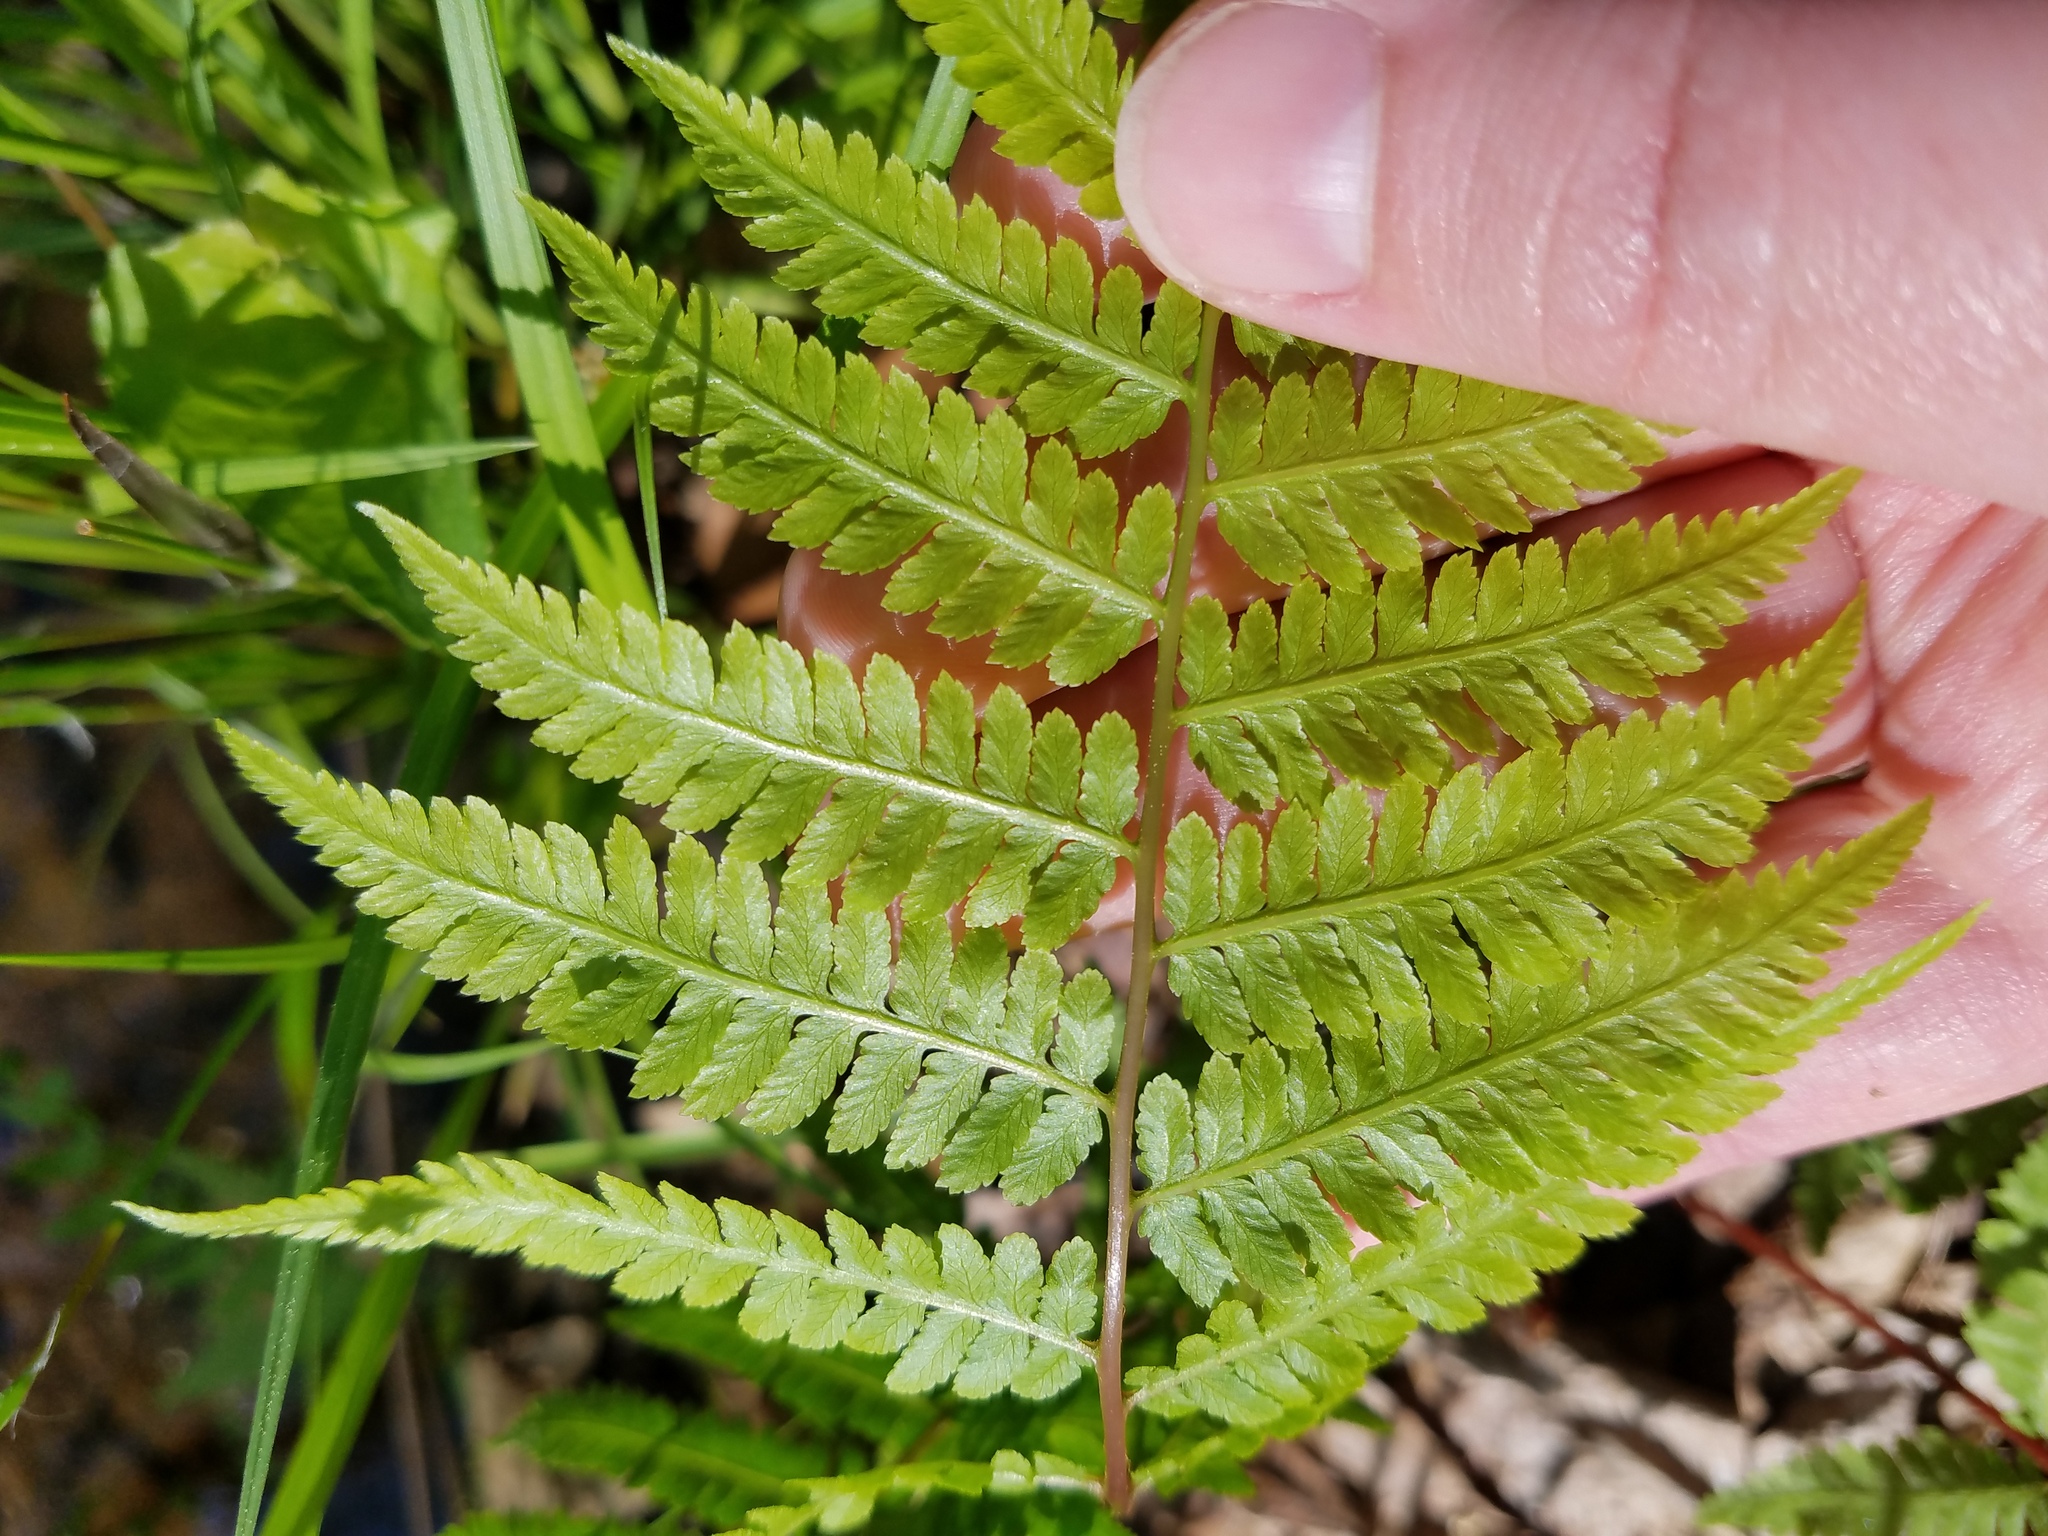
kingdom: Plantae
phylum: Tracheophyta
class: Polypodiopsida
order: Polypodiales
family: Athyriaceae
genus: Athyrium
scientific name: Athyrium asplenioides
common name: Southern lady fern
